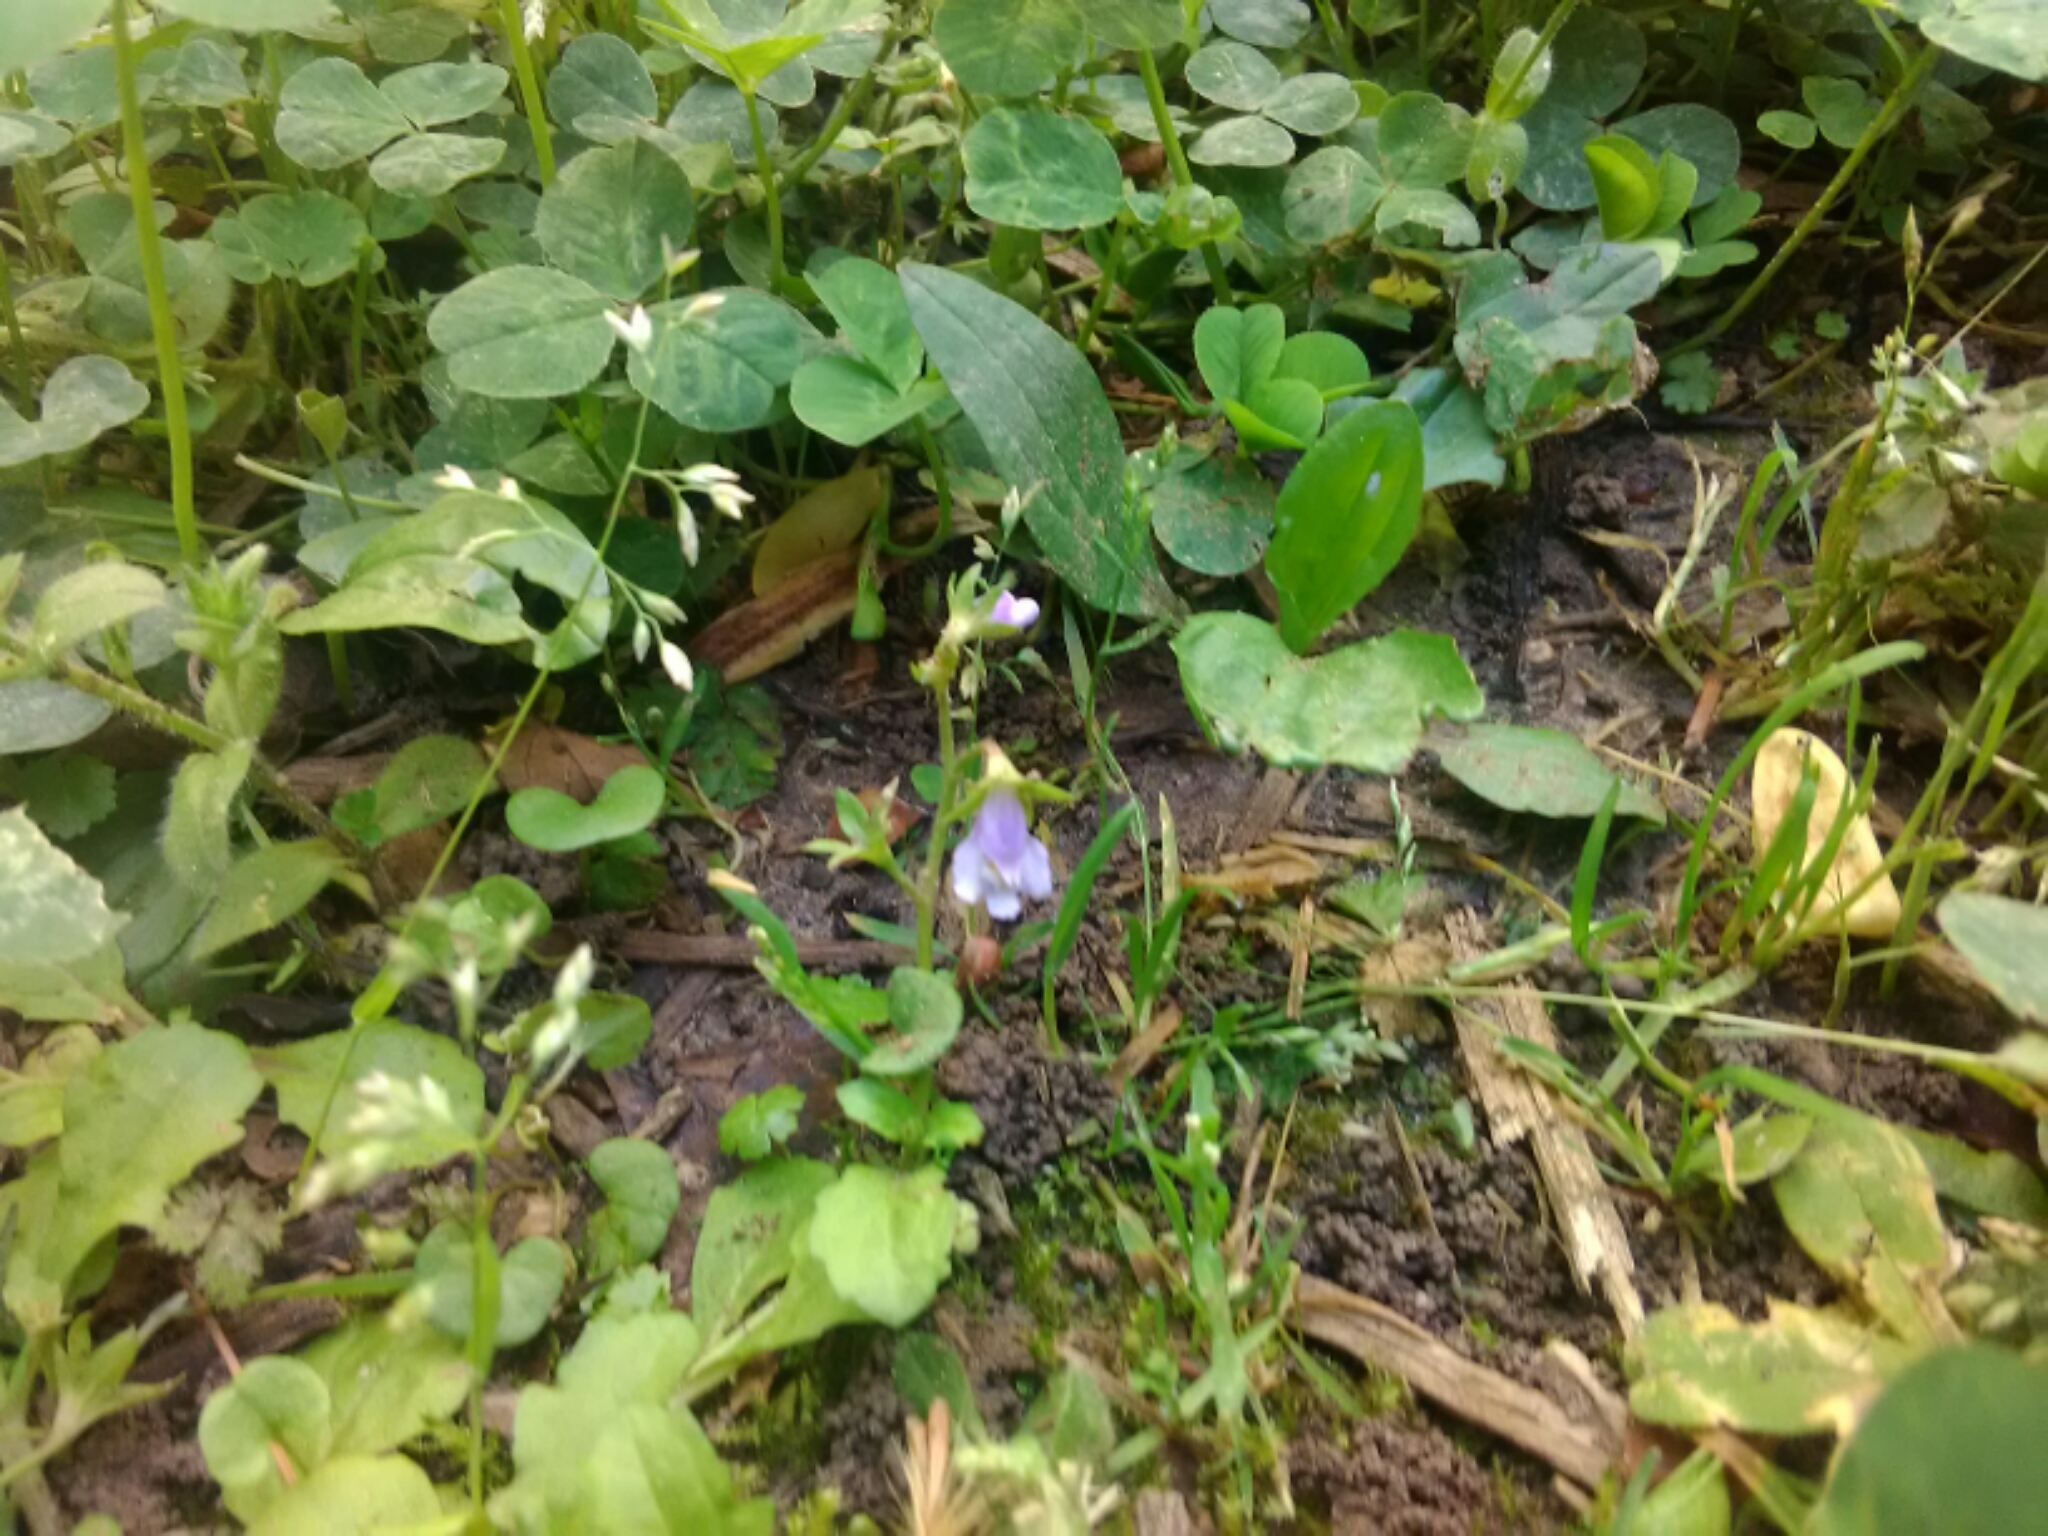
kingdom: Plantae
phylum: Tracheophyta
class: Magnoliopsida
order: Lamiales
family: Mazaceae
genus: Mazus
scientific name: Mazus pumilus
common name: Japanese mazus
